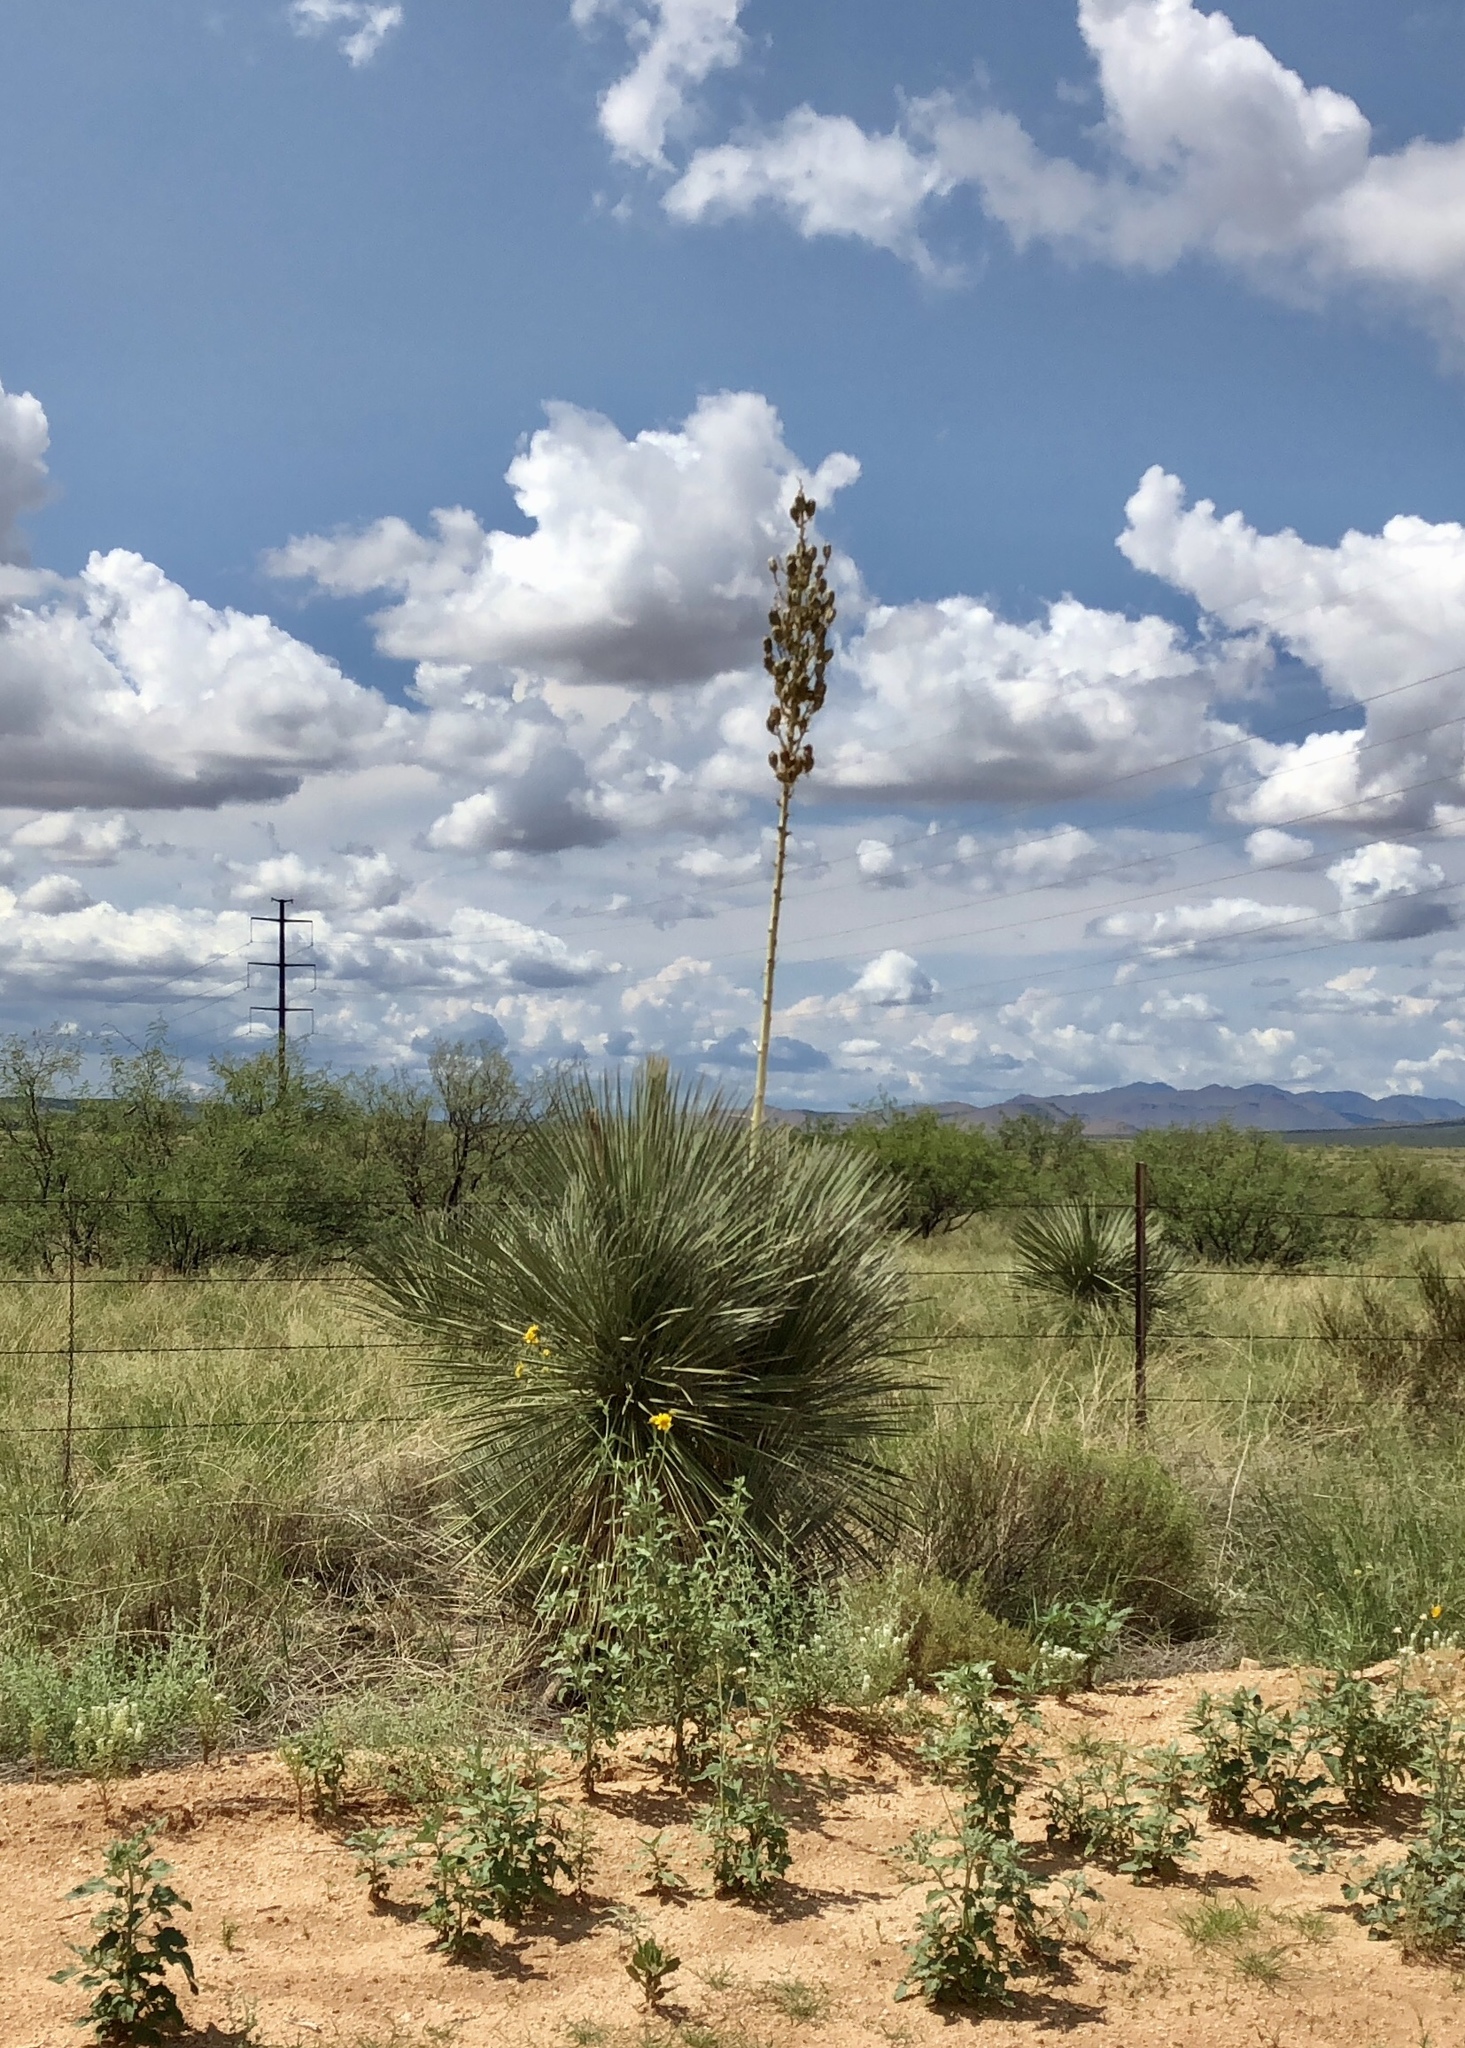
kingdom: Plantae
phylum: Tracheophyta
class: Liliopsida
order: Asparagales
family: Asparagaceae
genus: Yucca
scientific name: Yucca elata
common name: Palmella
